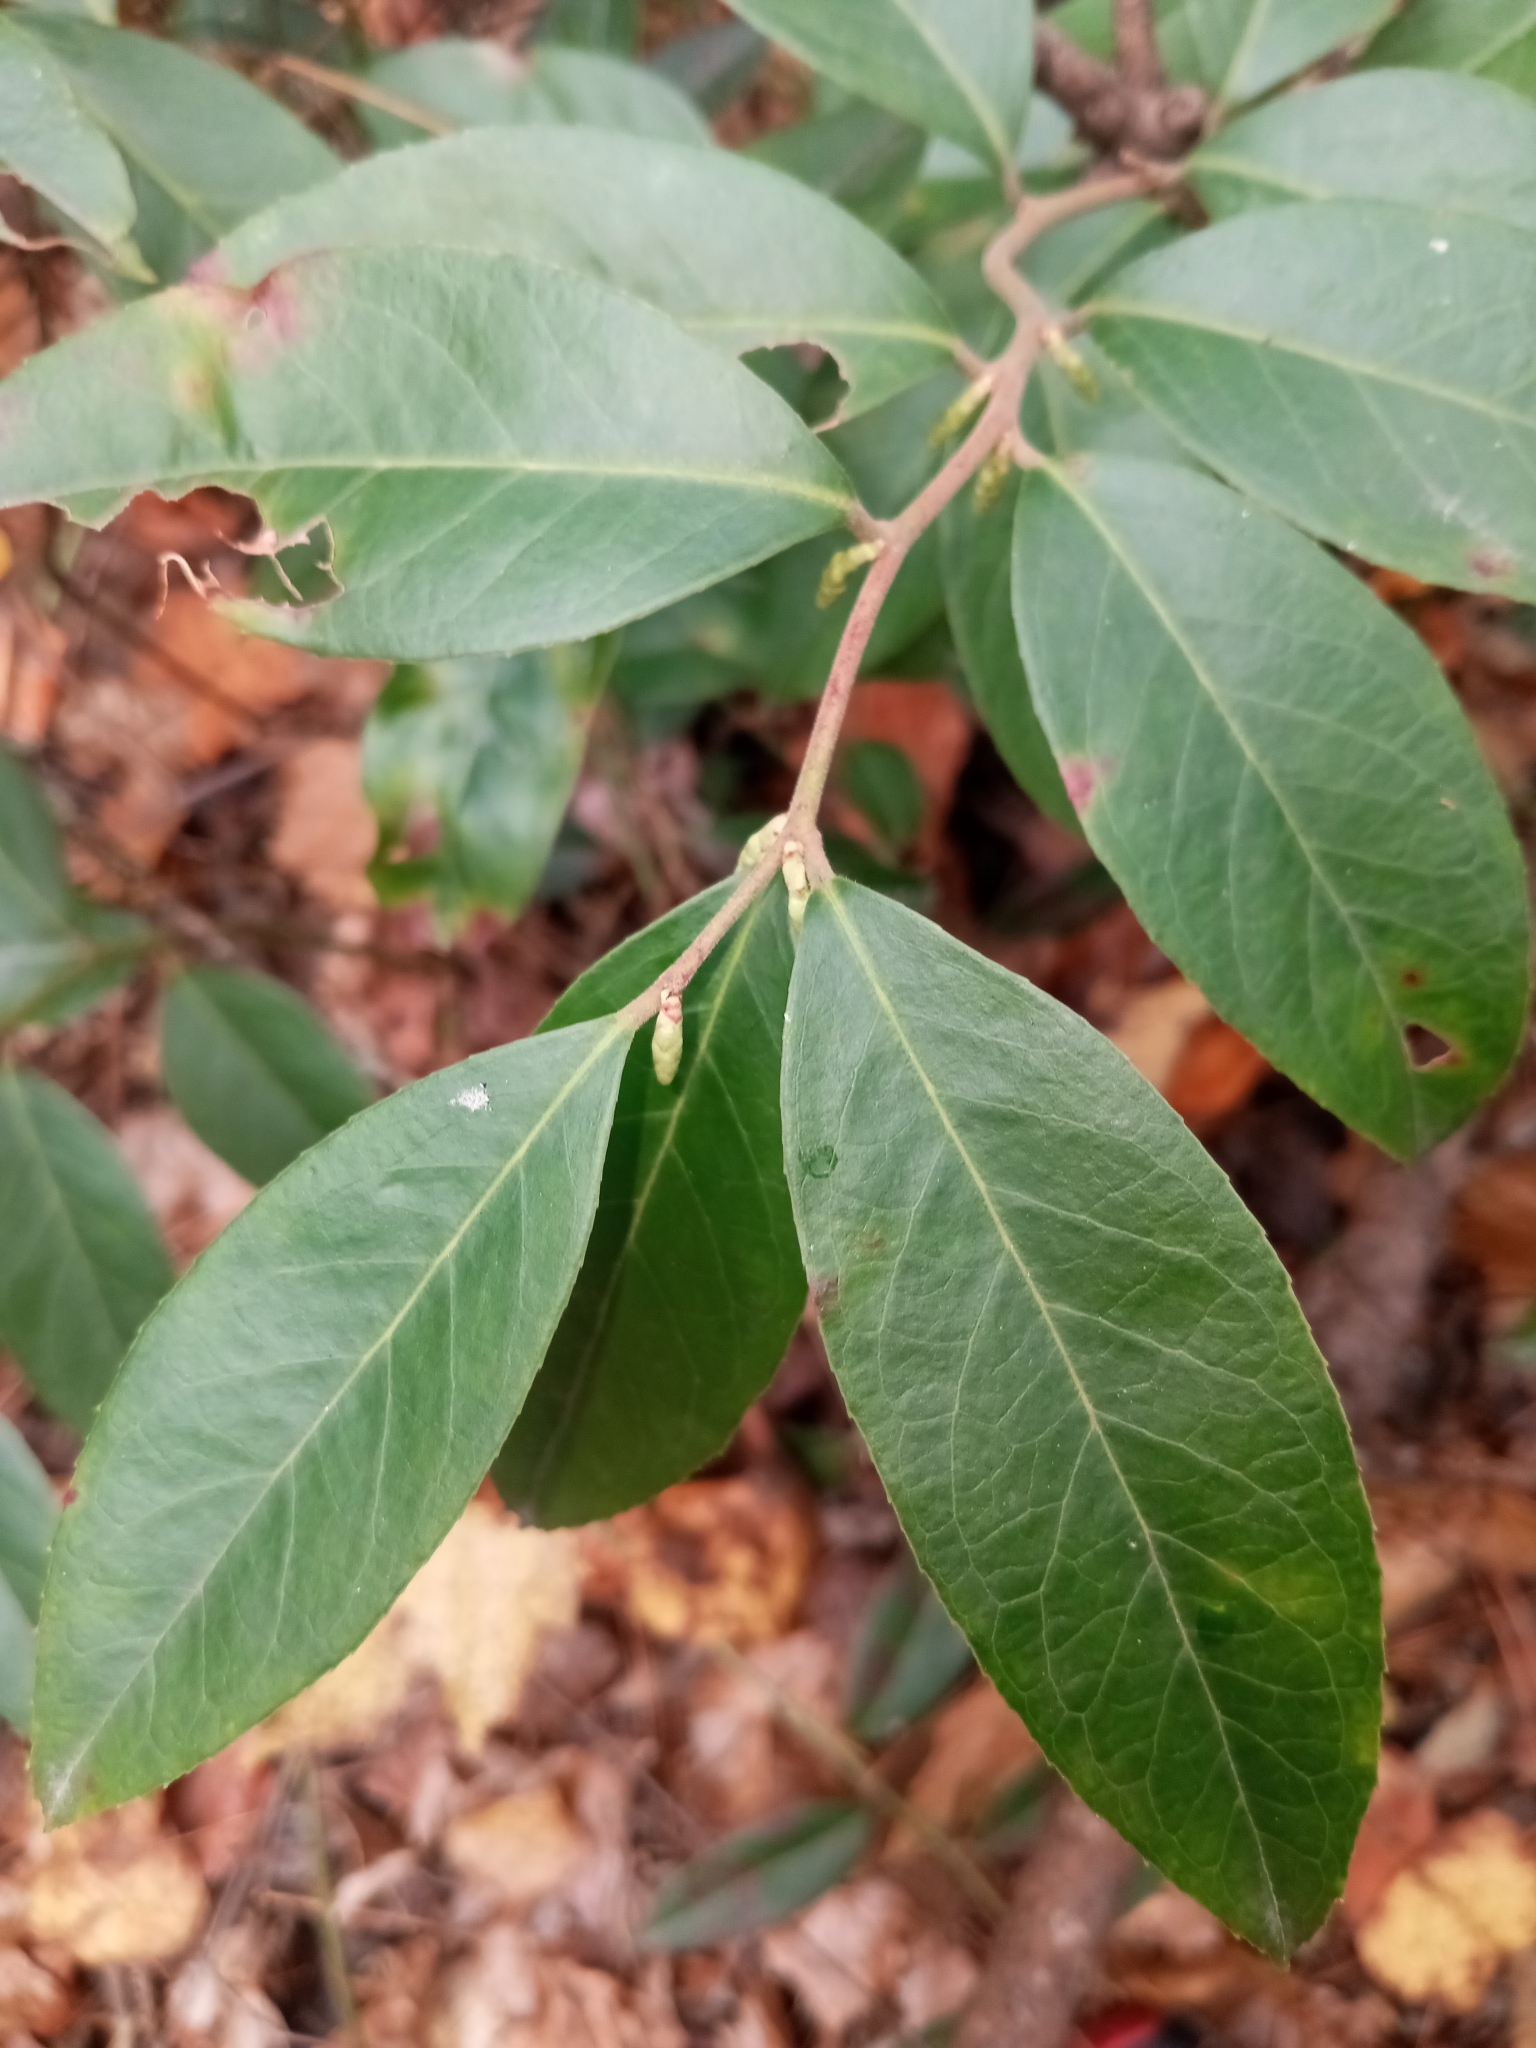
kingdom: Plantae
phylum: Tracheophyta
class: Magnoliopsida
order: Ericales
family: Ericaceae
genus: Leucothoe
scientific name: Leucothoe axillaris
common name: Leucothoe
